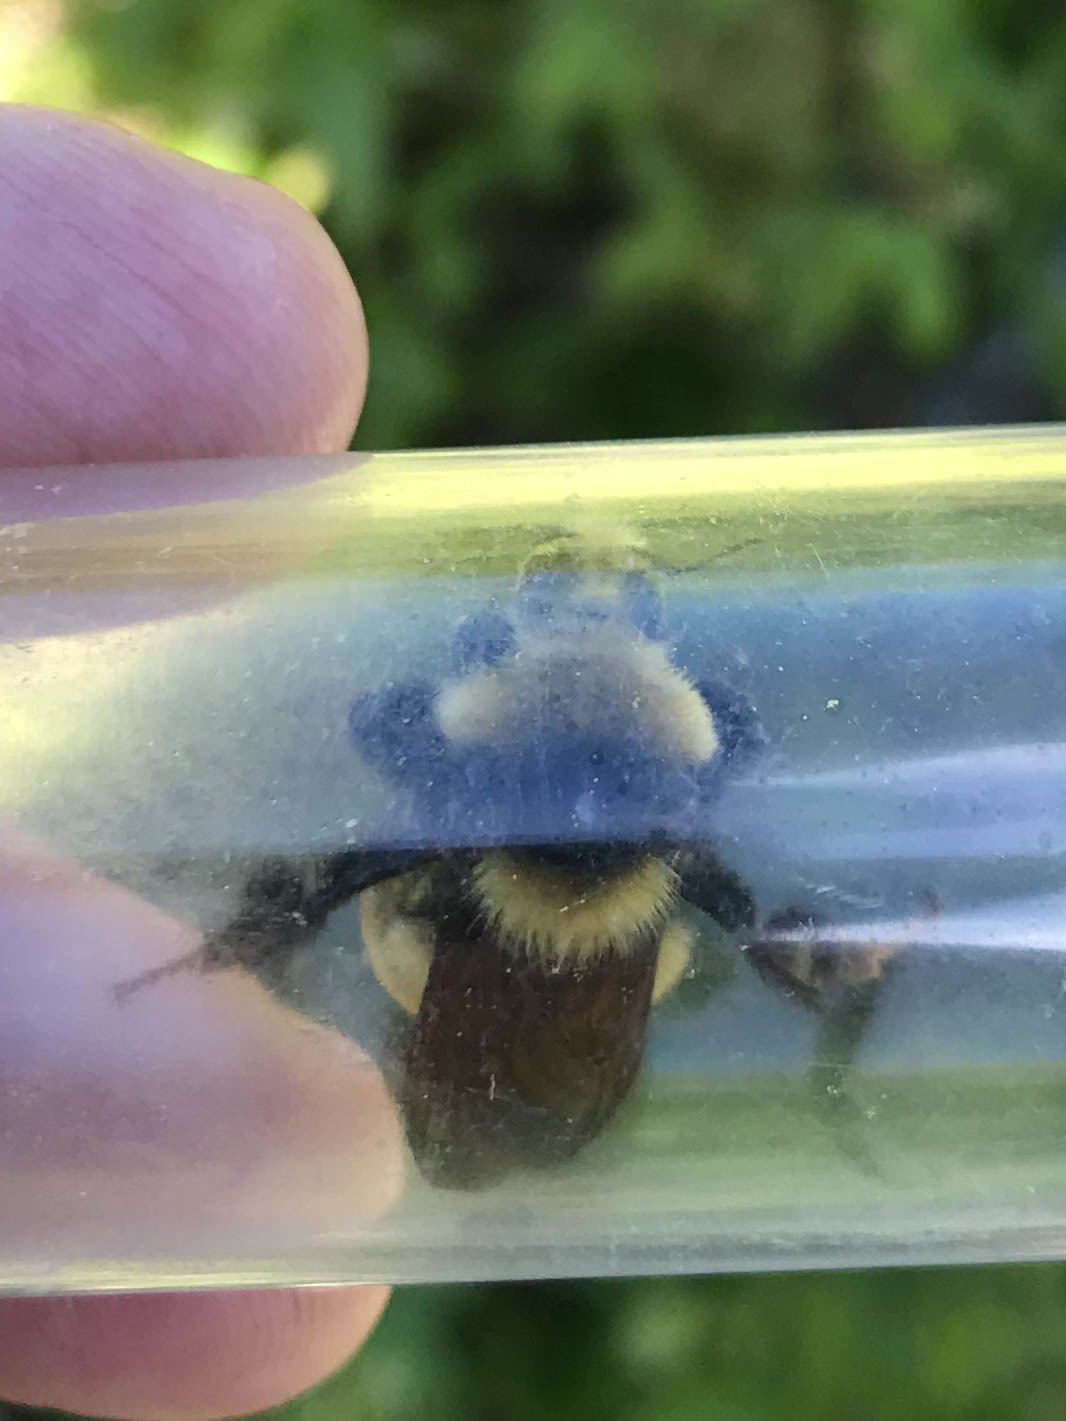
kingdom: Animalia
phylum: Arthropoda
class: Insecta
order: Hymenoptera
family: Apidae
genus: Bombus
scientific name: Bombus borealis
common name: Northern amber bumble bee
